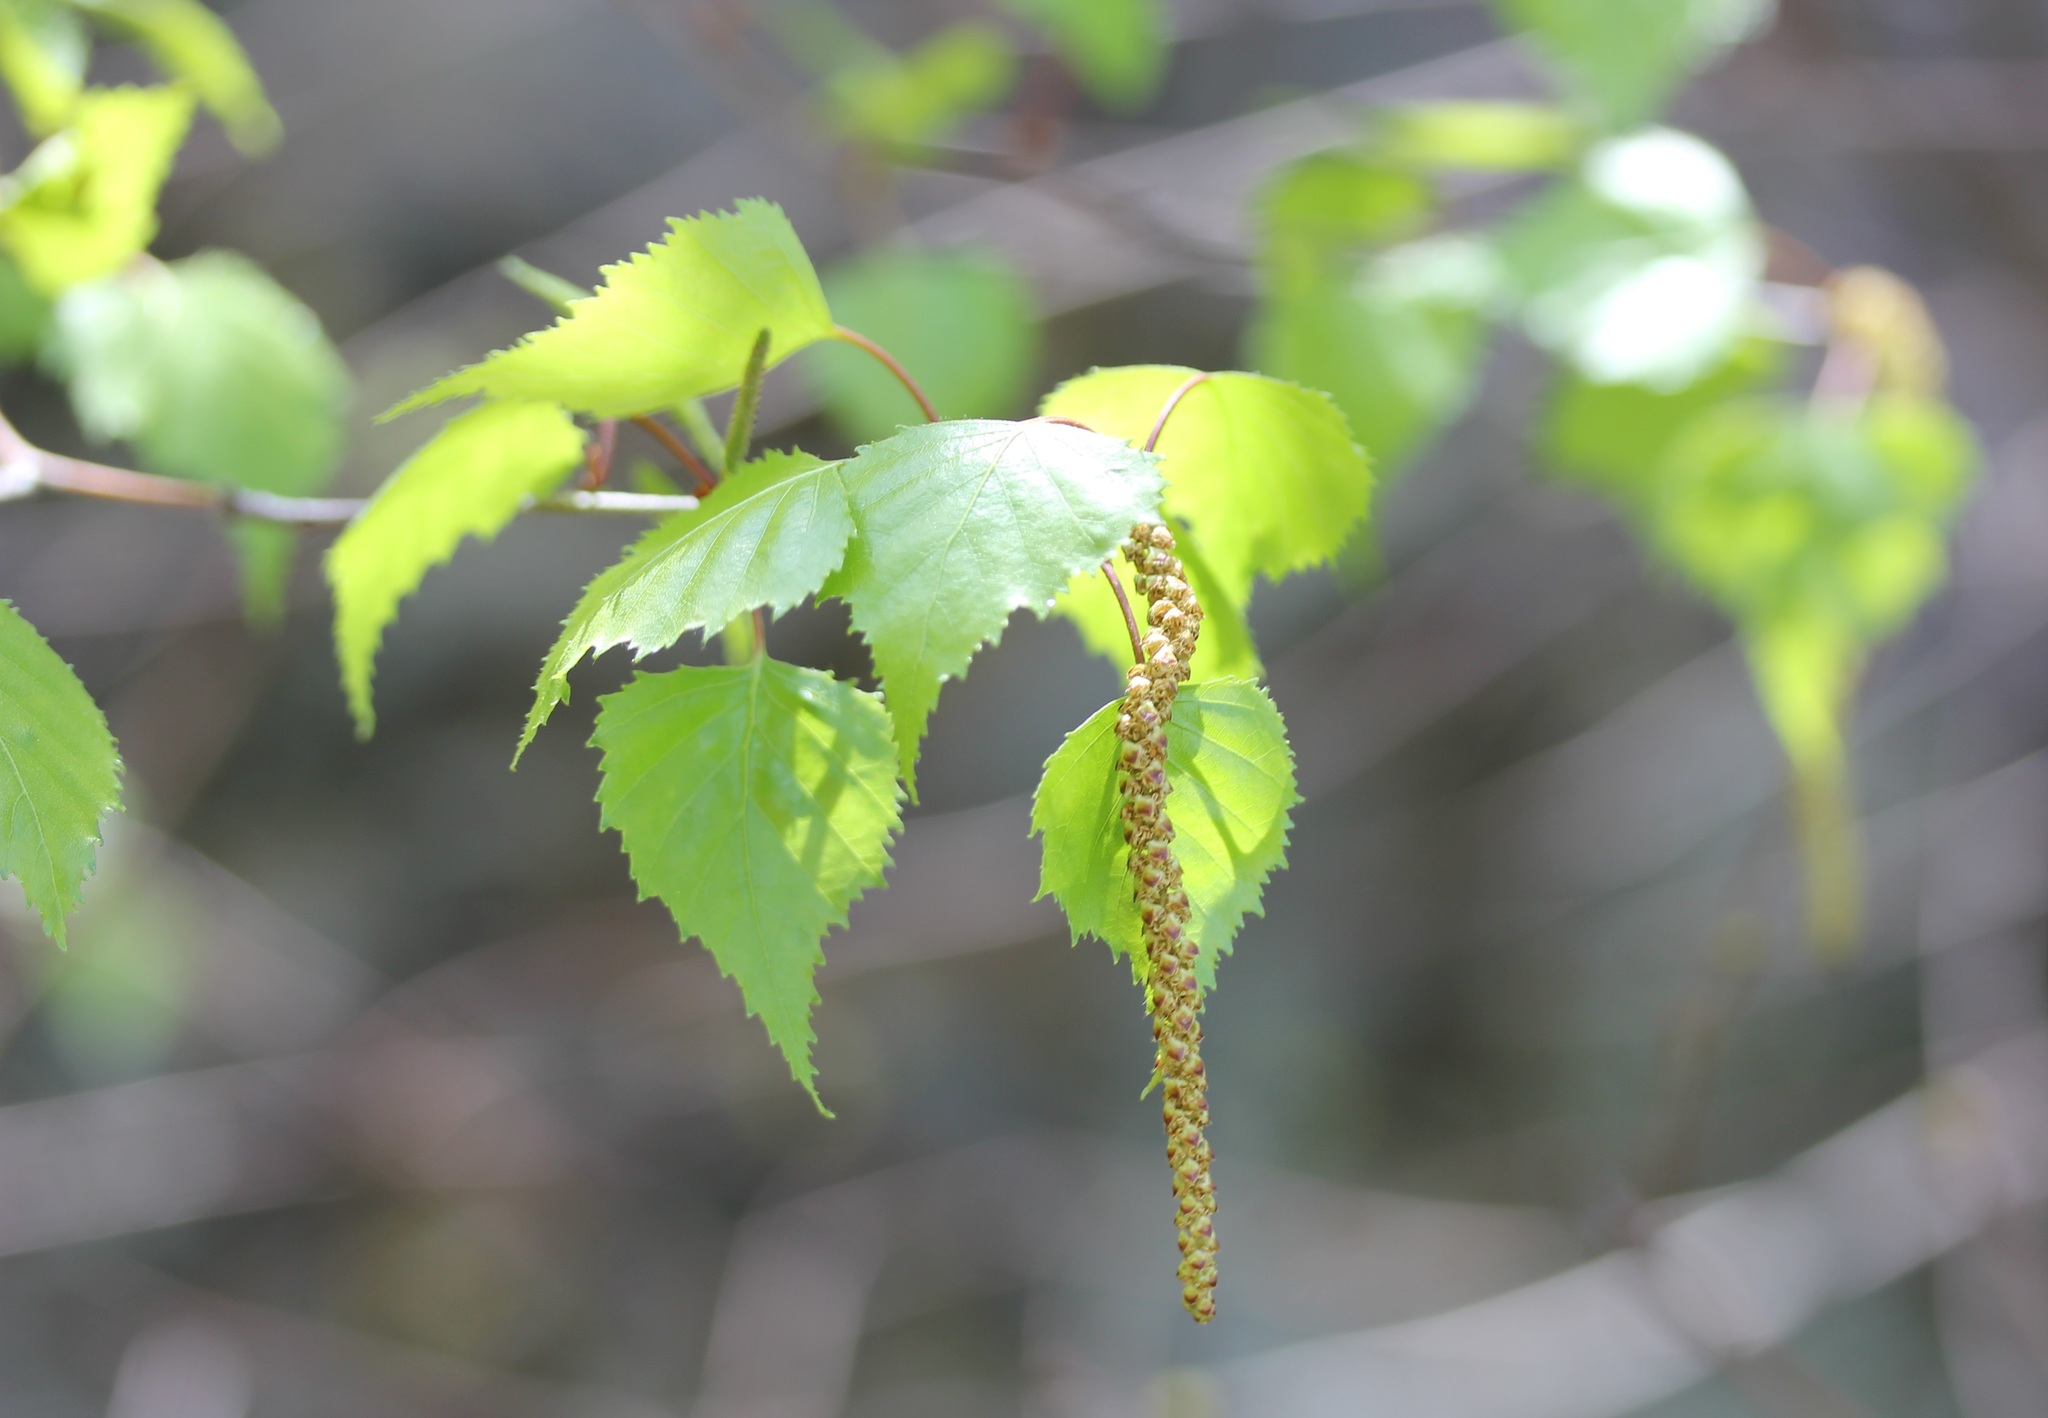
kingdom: Plantae
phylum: Tracheophyta
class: Magnoliopsida
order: Fagales
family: Betulaceae
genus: Betula
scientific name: Betula populifolia
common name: Fire birch
